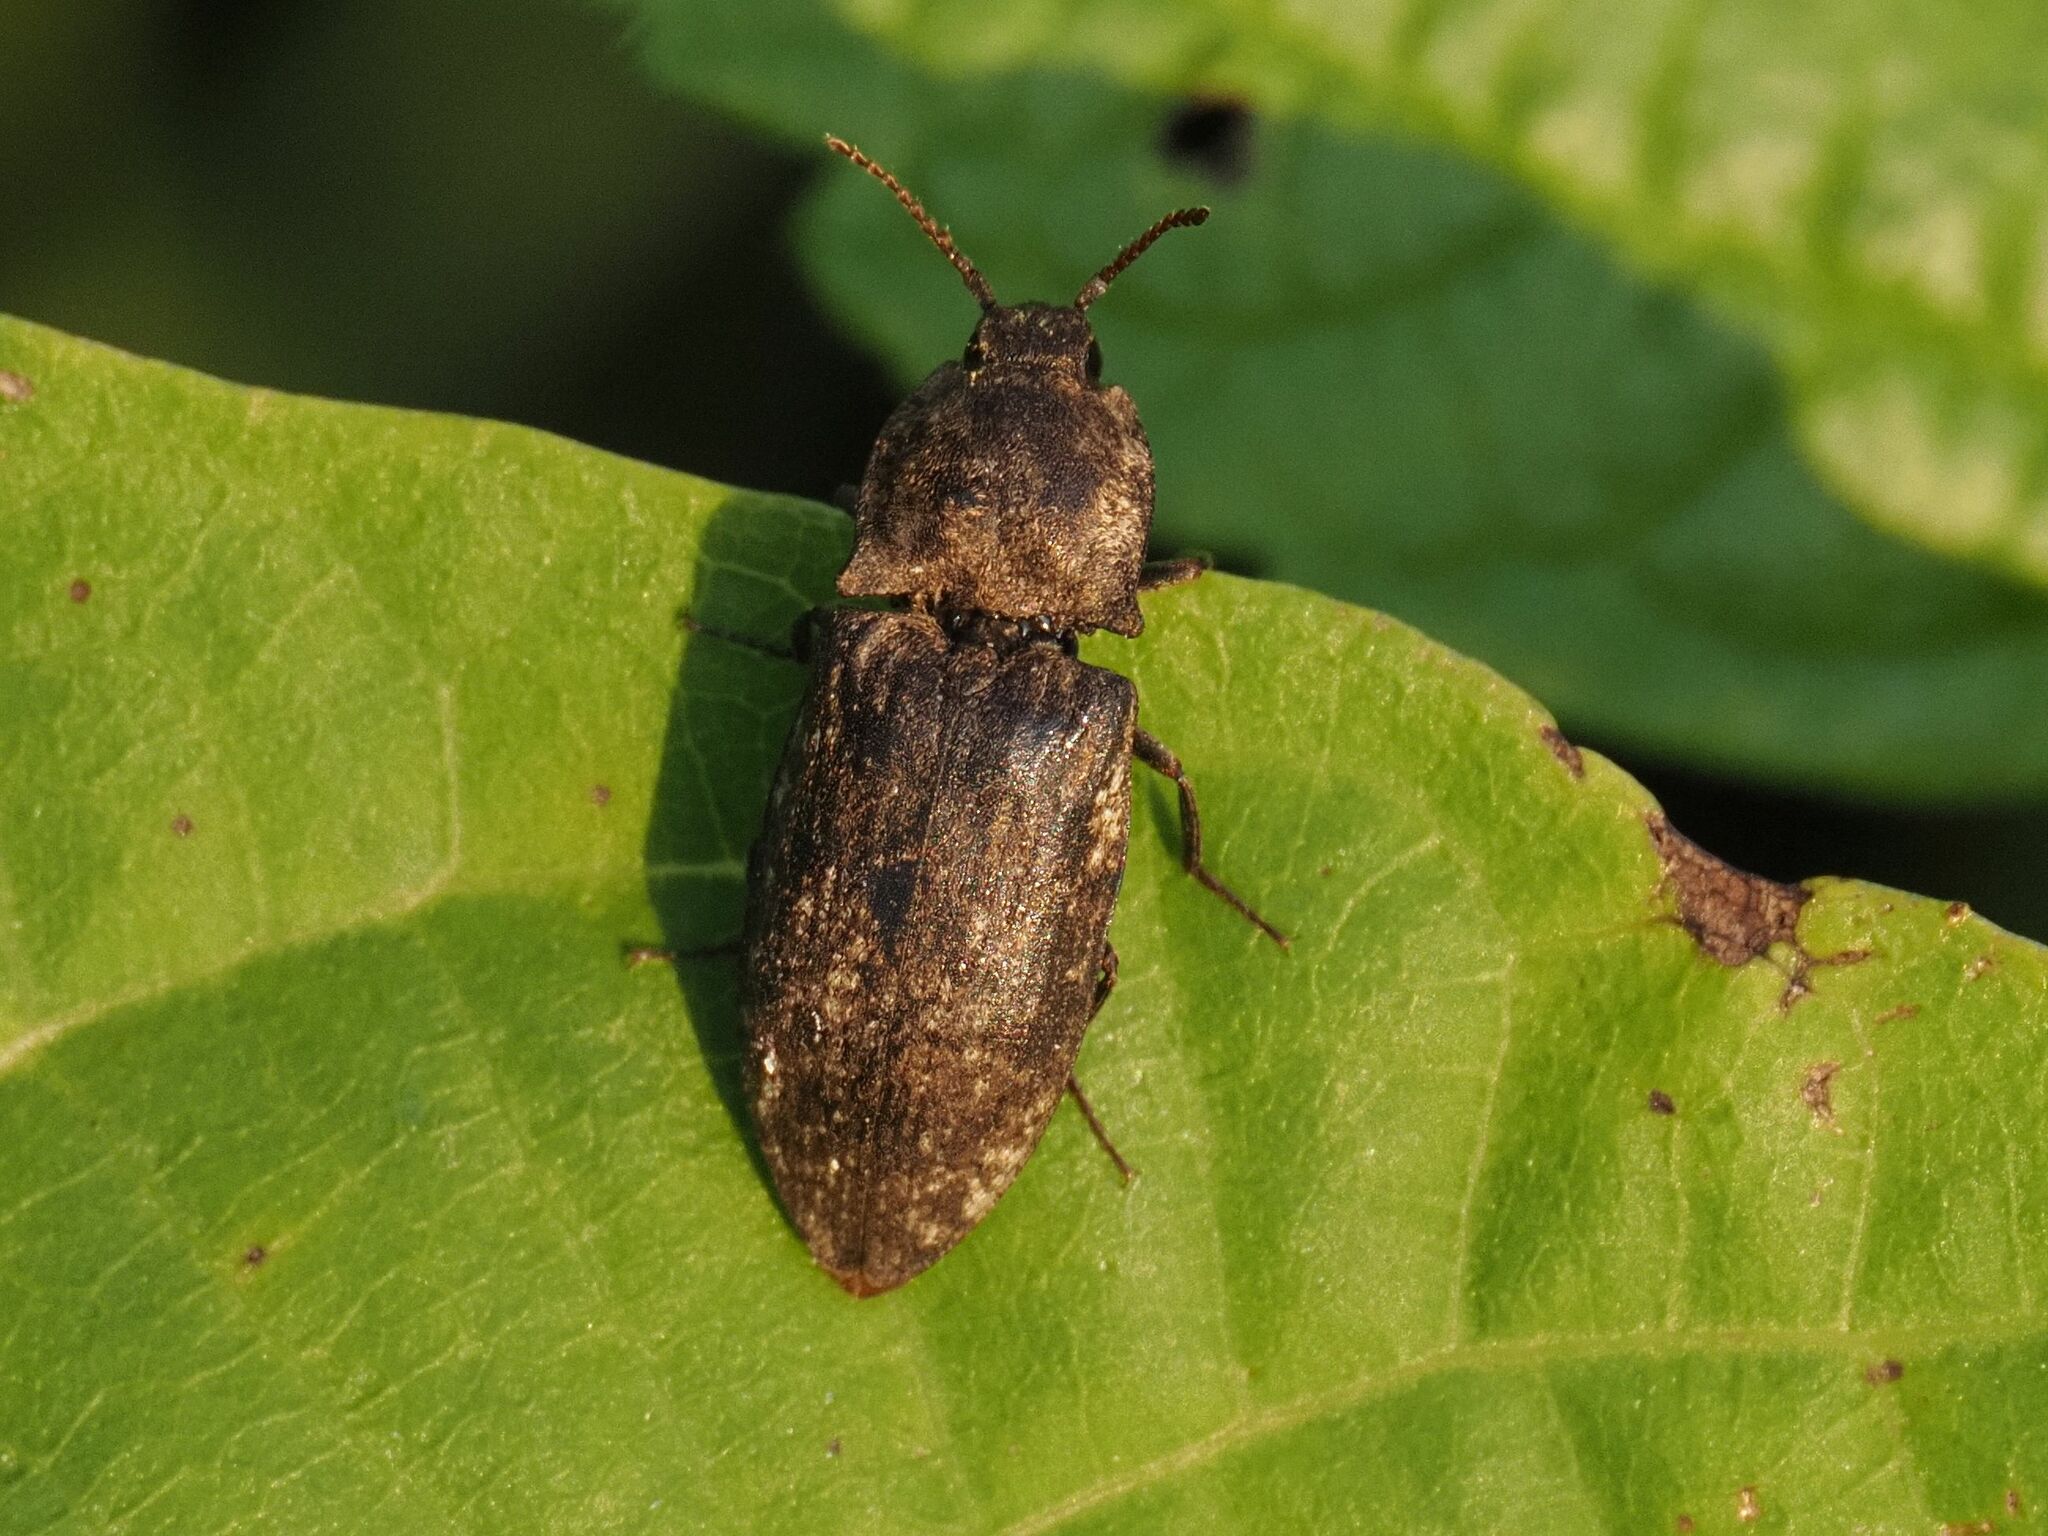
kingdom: Animalia
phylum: Arthropoda
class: Insecta
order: Coleoptera
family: Elateridae
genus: Agrypnus
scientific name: Agrypnus murinus
